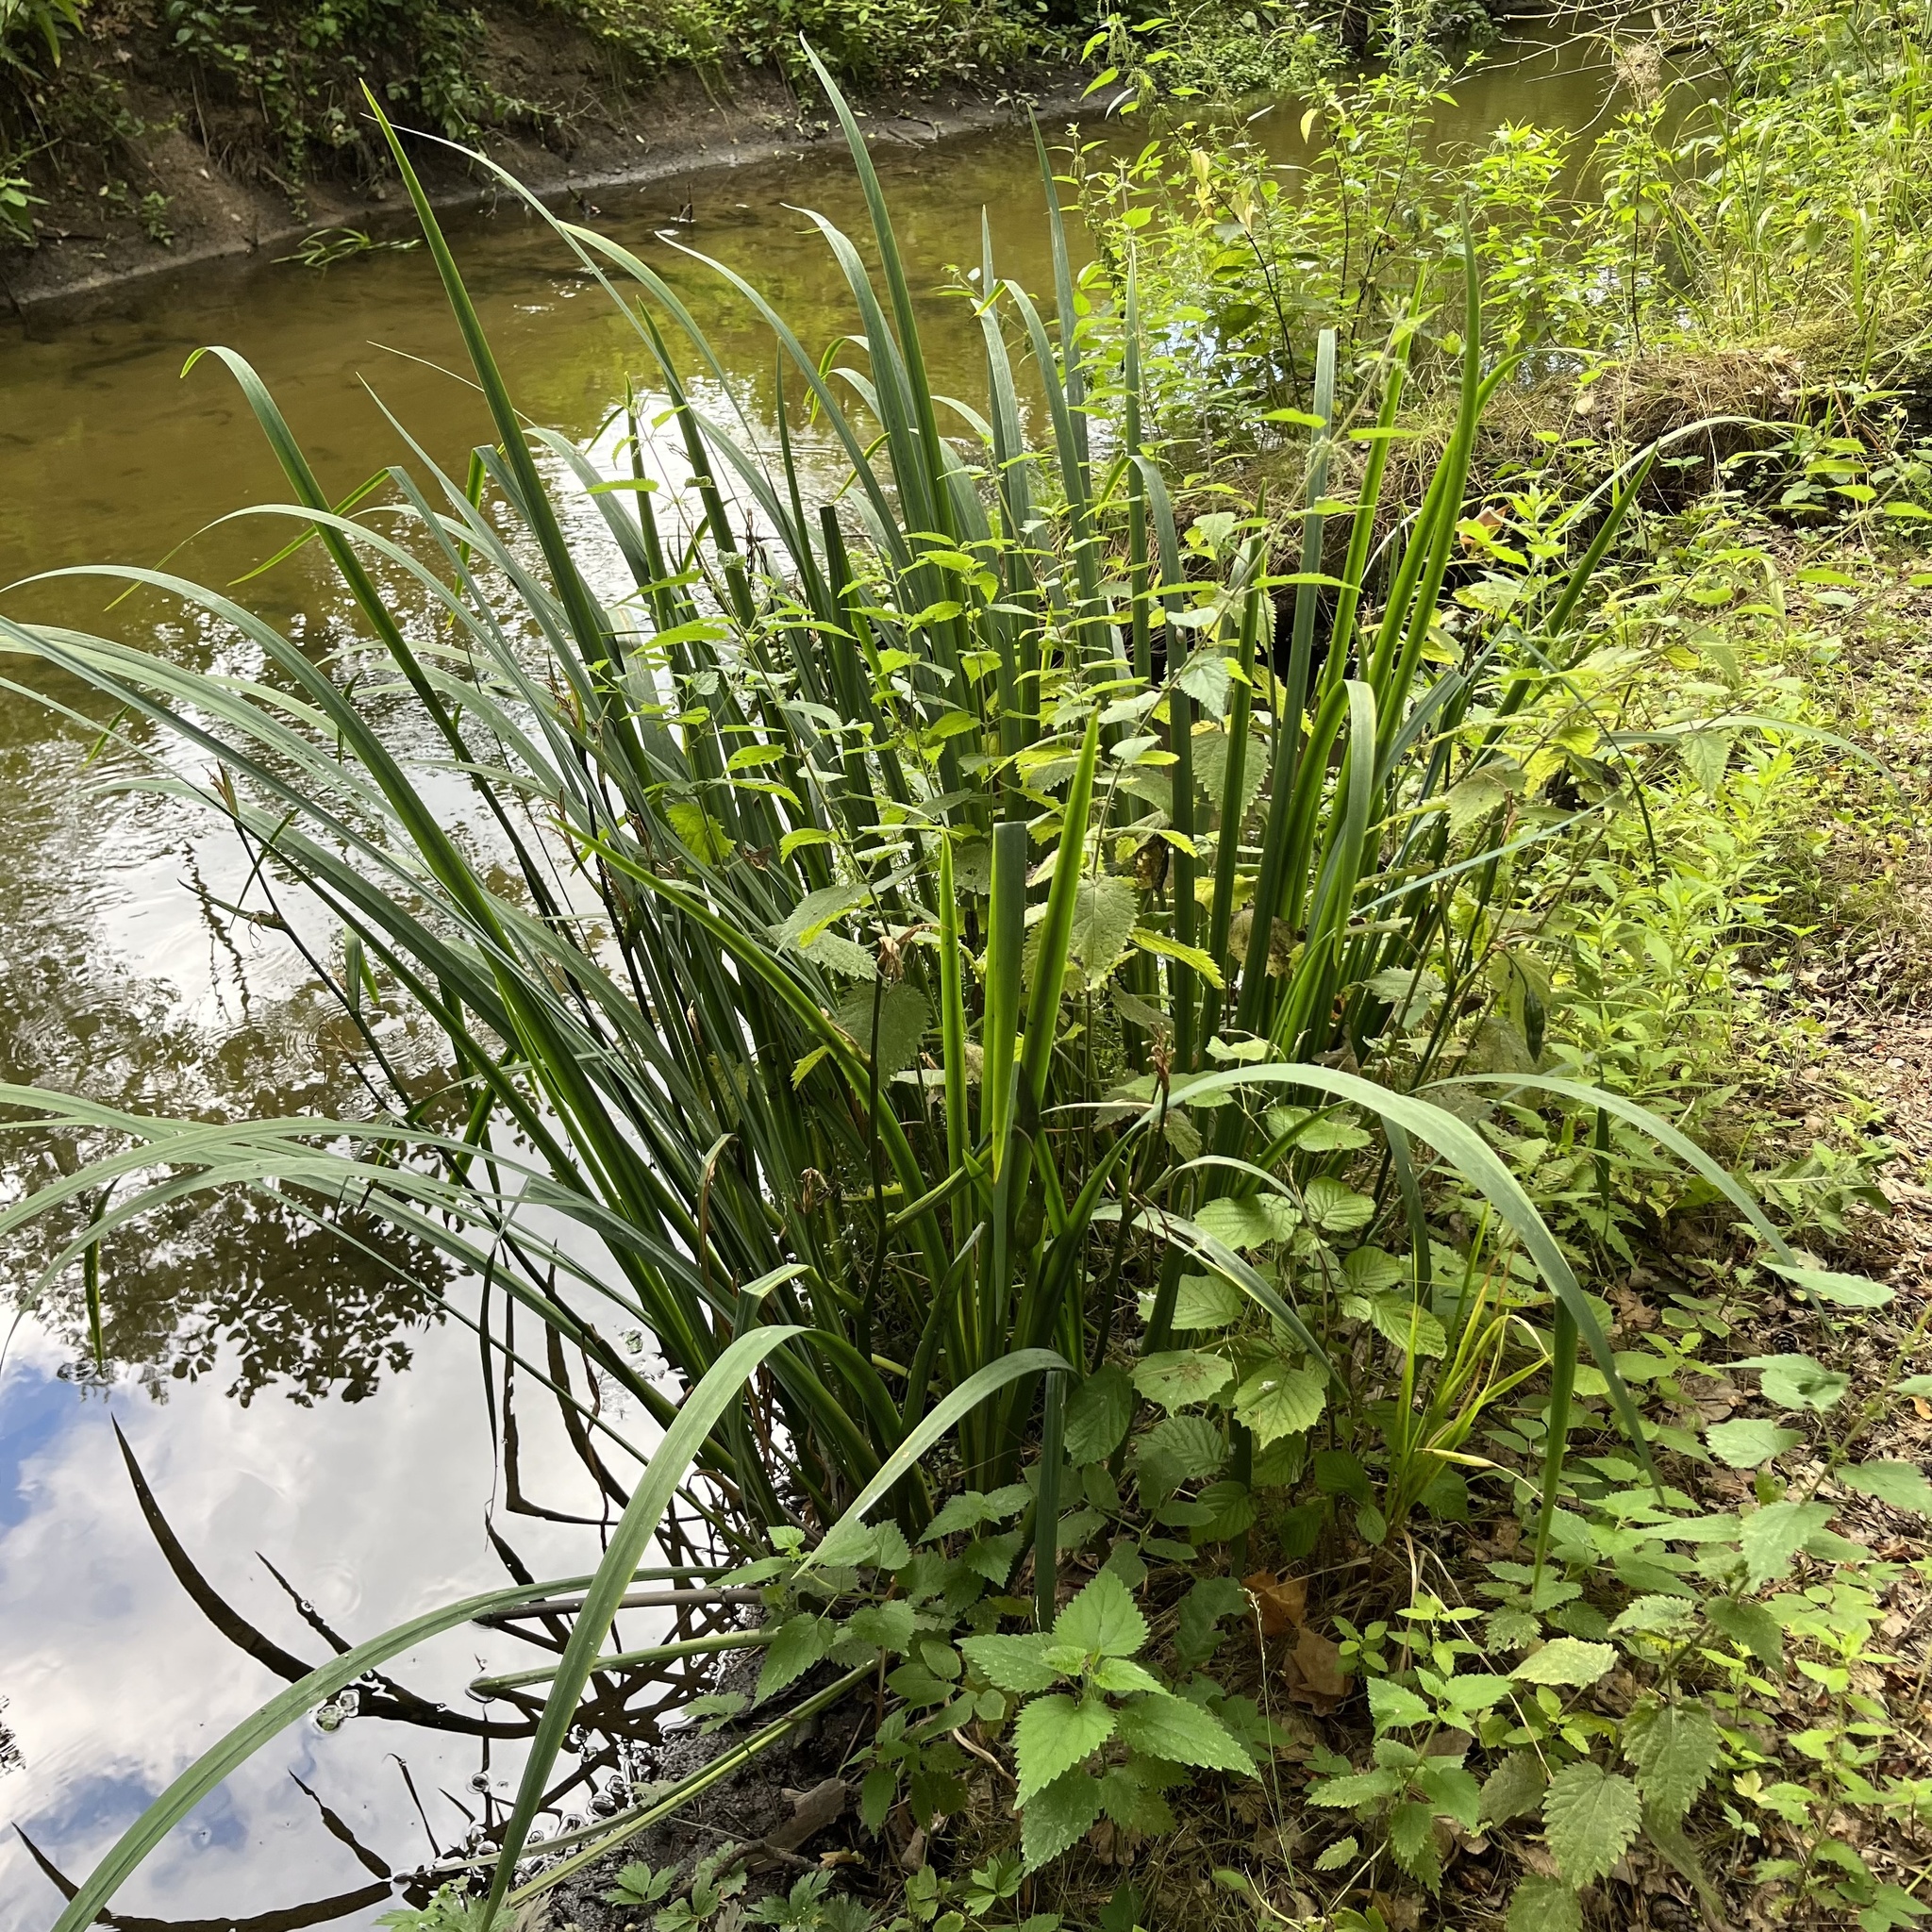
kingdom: Plantae
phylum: Tracheophyta
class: Liliopsida
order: Asparagales
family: Iridaceae
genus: Iris
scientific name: Iris pseudacorus
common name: Yellow flag
